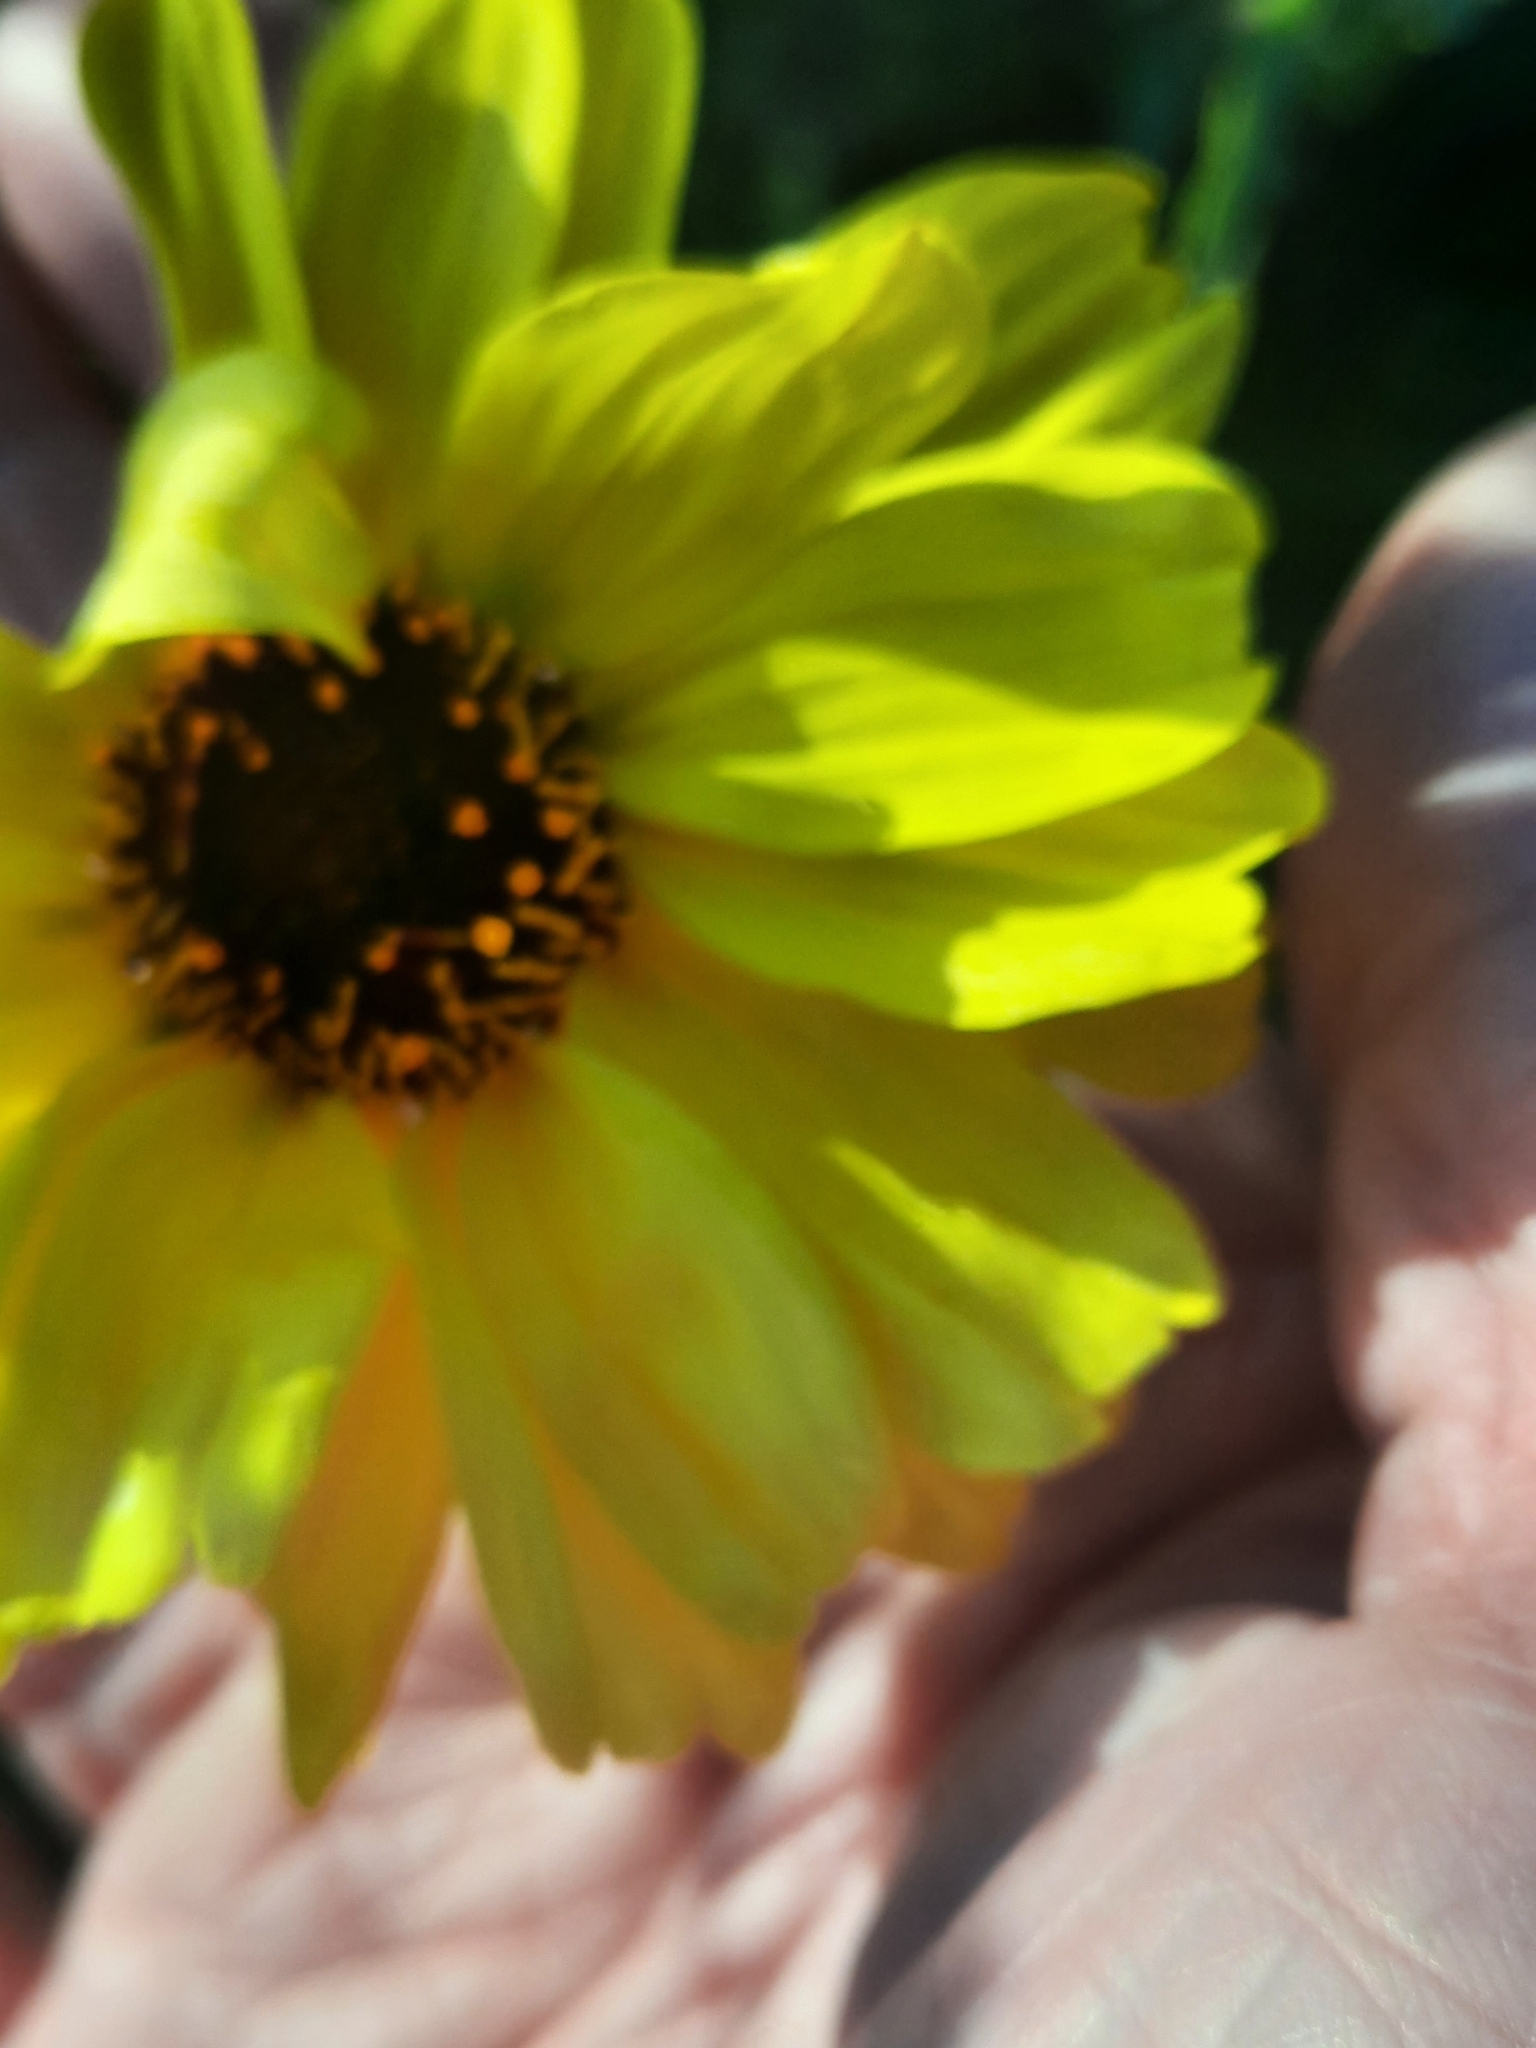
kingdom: Plantae
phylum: Tracheophyta
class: Magnoliopsida
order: Asterales
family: Asteraceae
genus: Encelia
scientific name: Encelia californica
